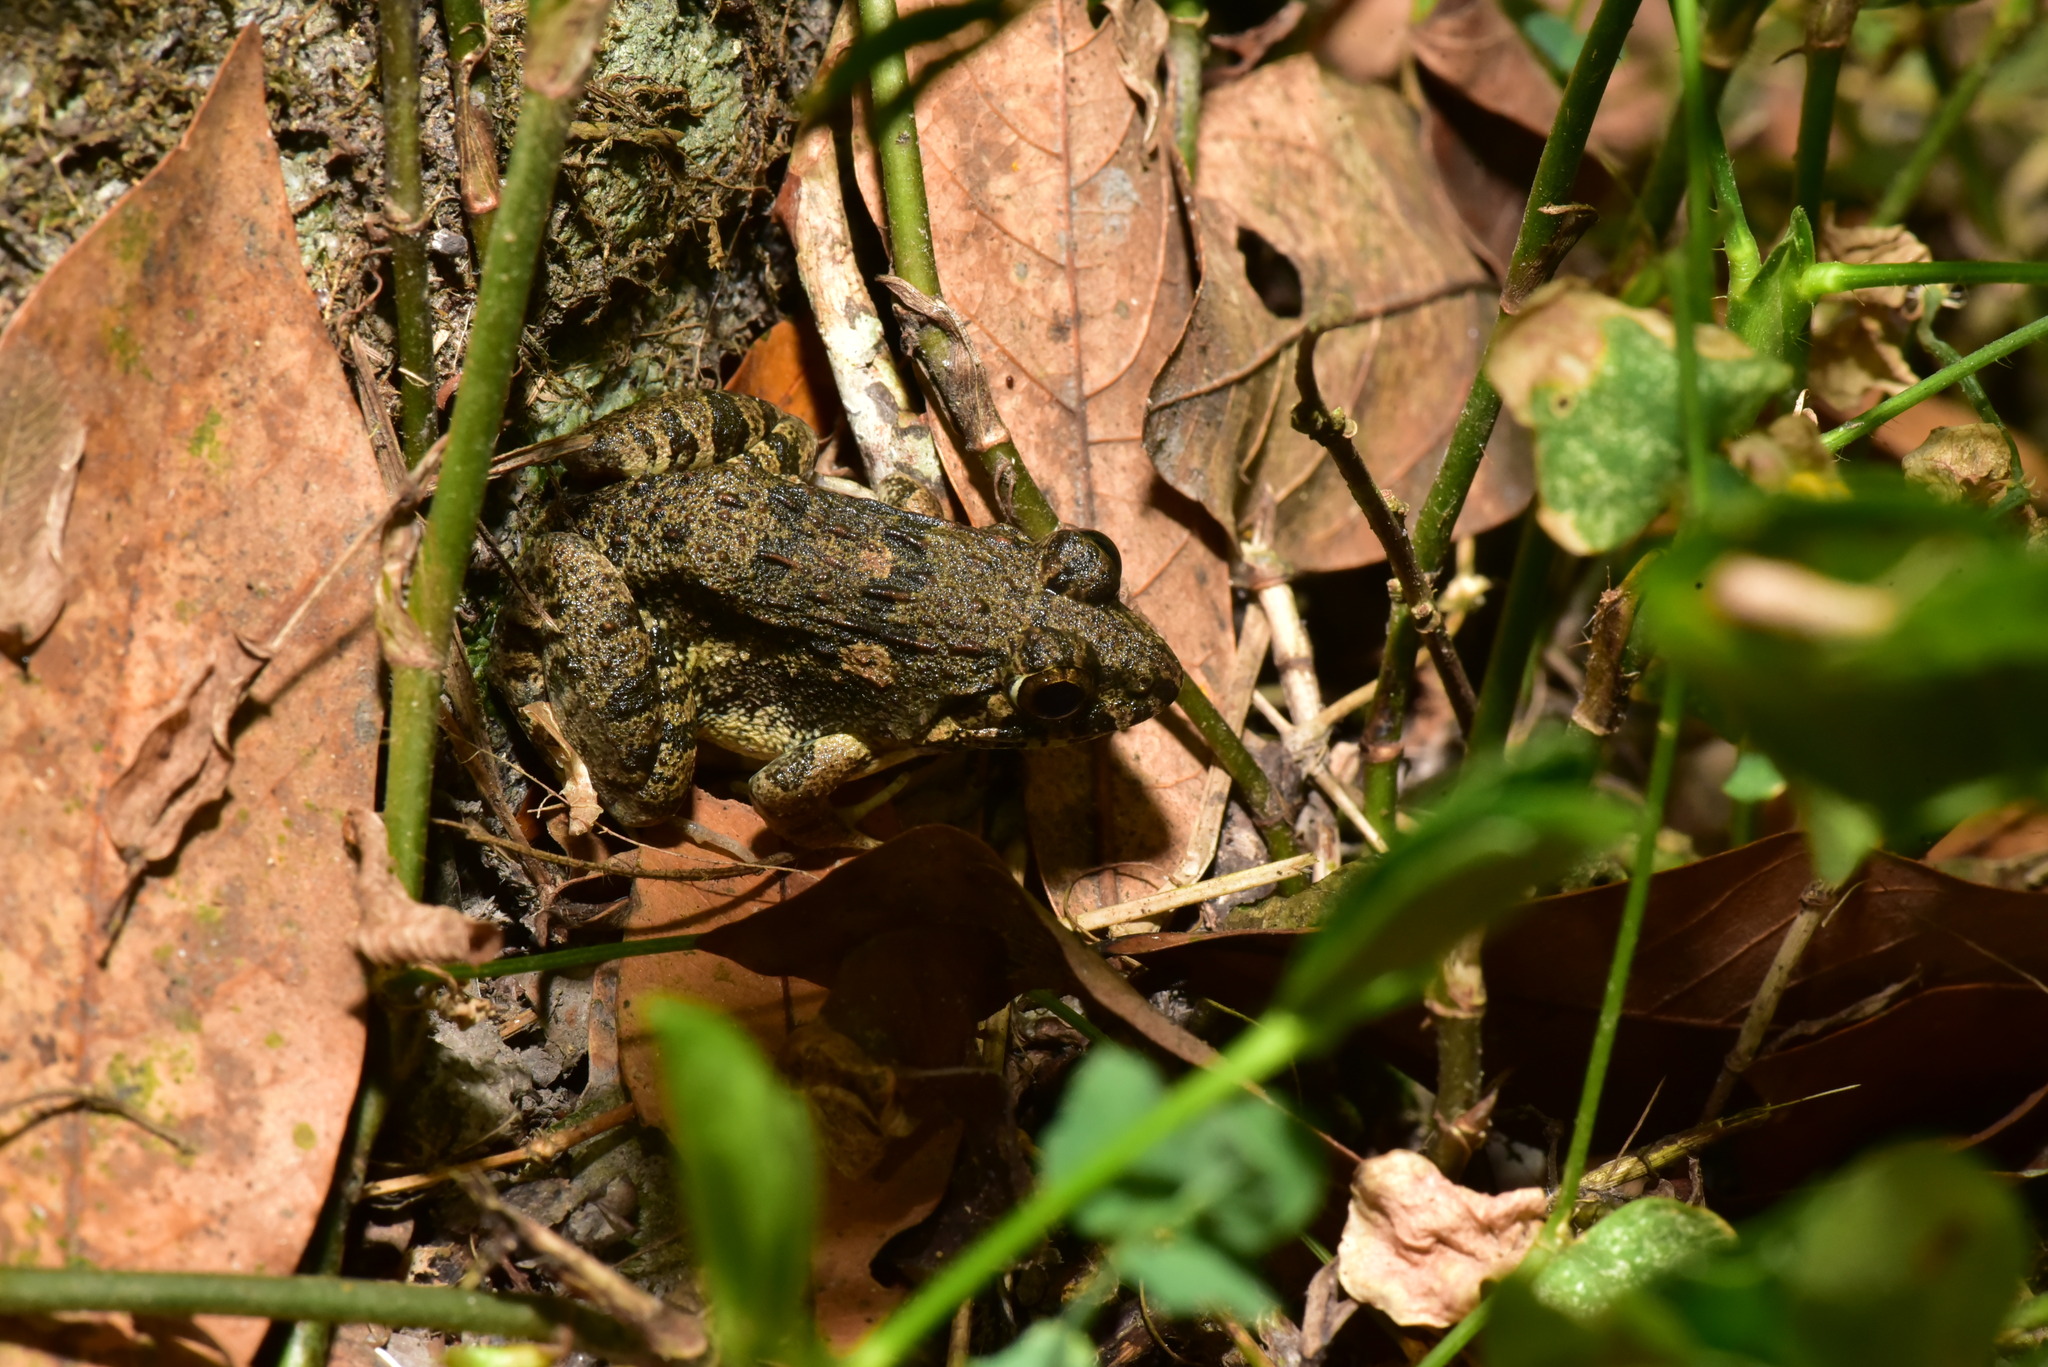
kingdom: Animalia
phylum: Chordata
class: Amphibia
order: Anura
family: Dicroglossidae
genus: Fejervarya
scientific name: Fejervarya limnocharis
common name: Asian grass frog/common pond frog/field frog/grass frog/indian rice frog
